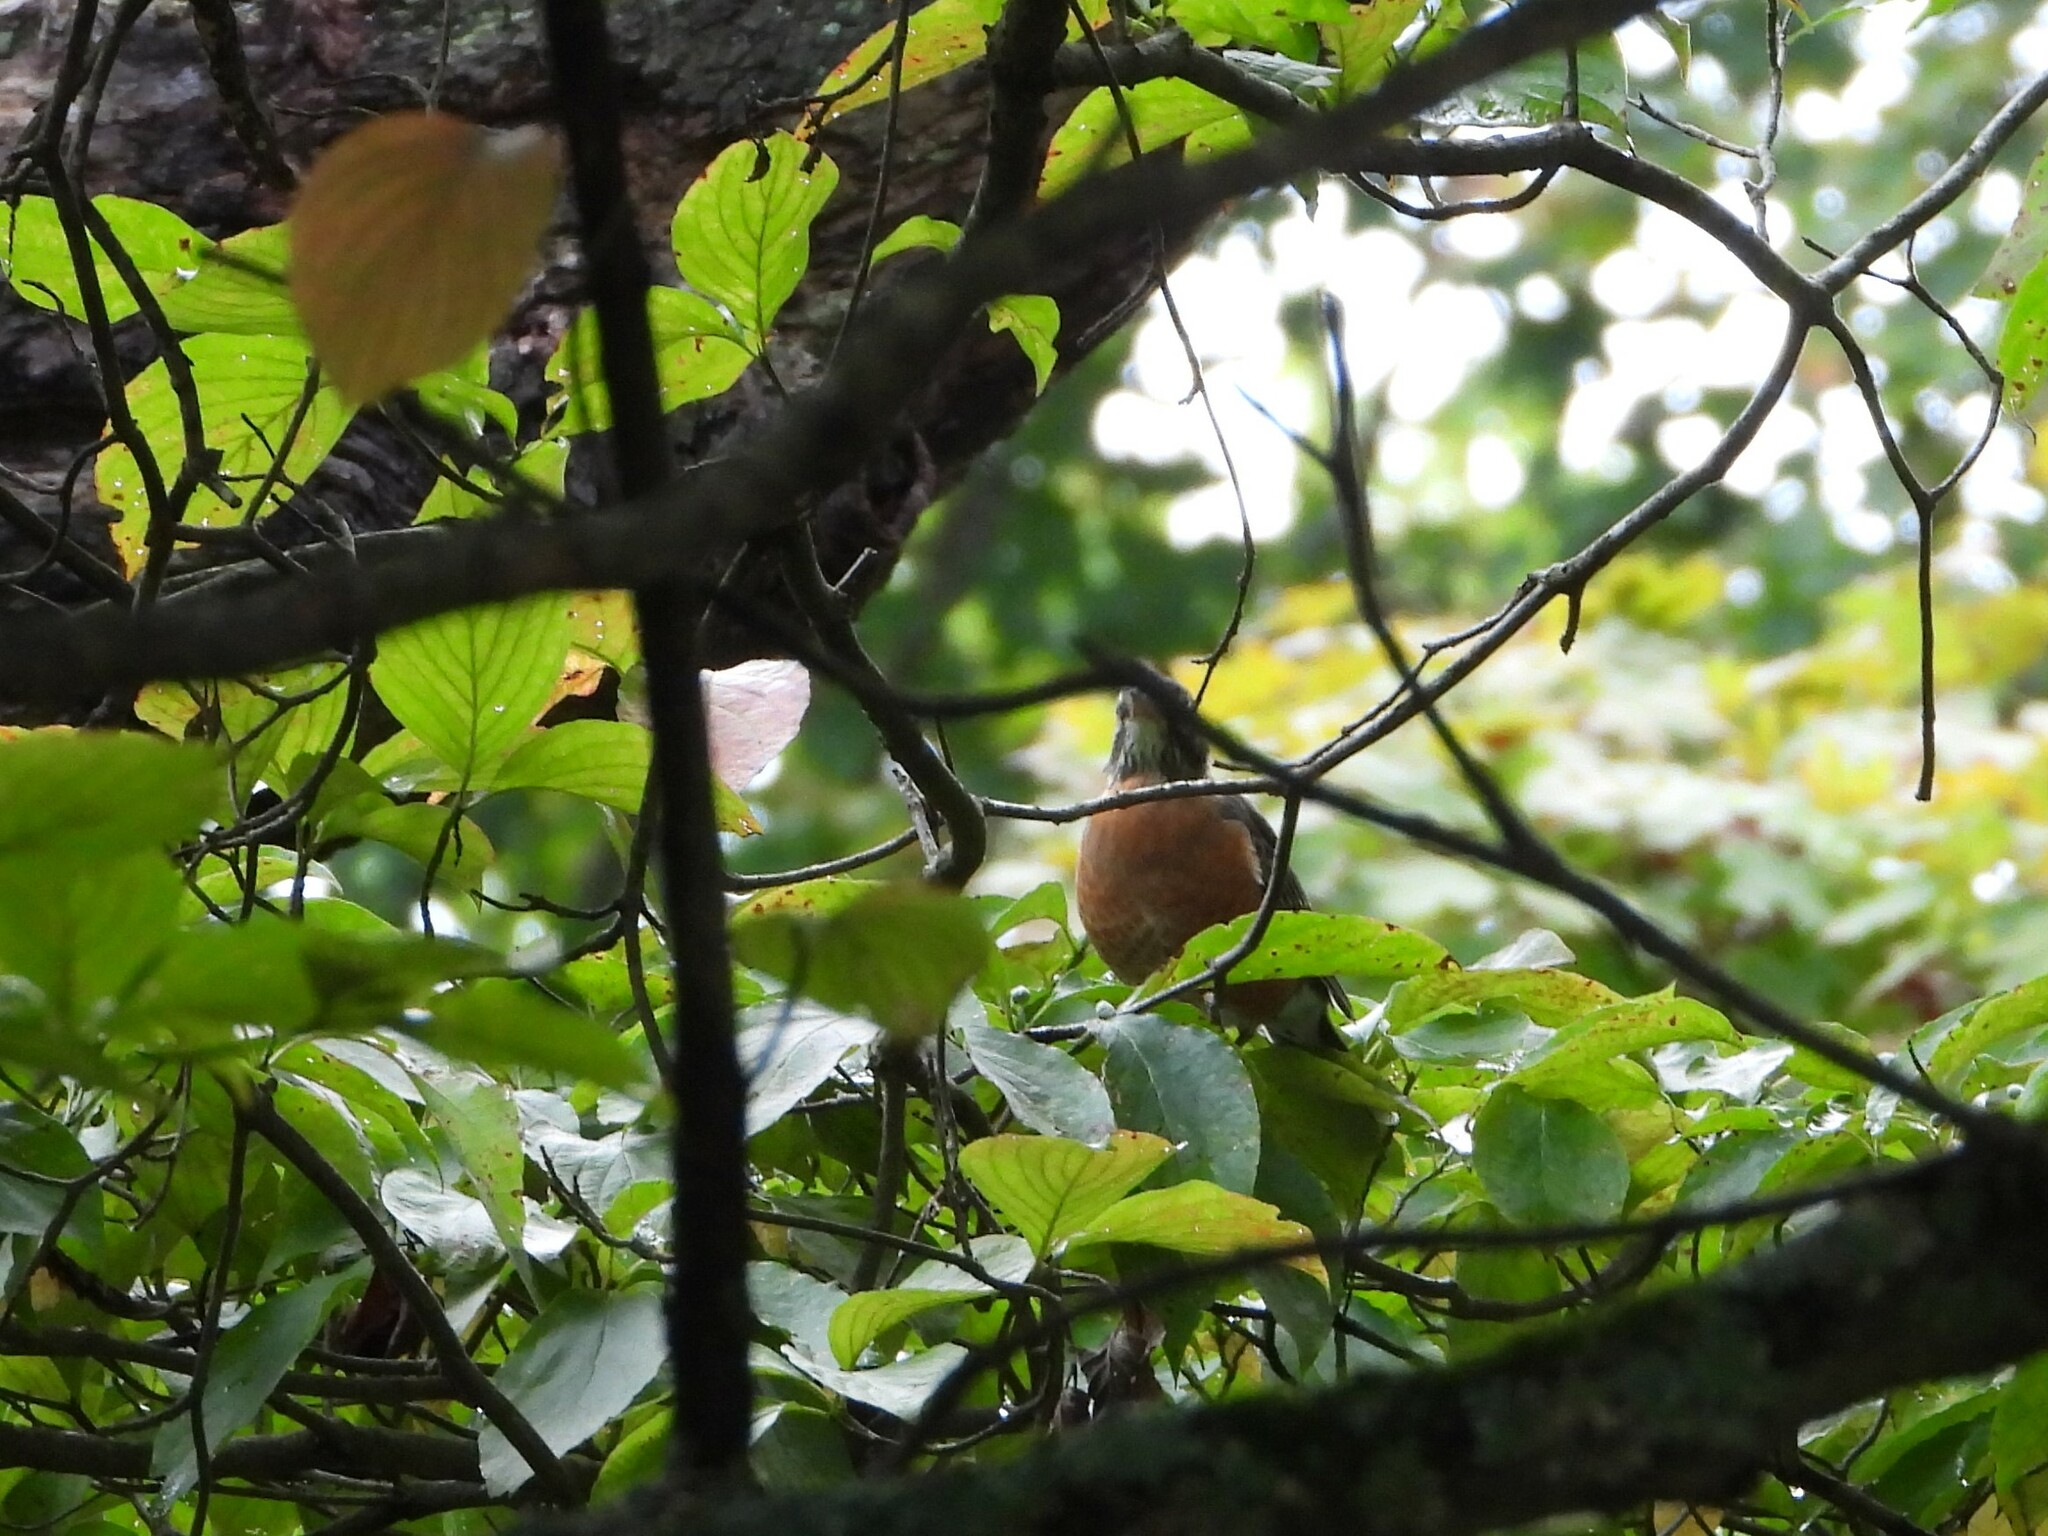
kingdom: Animalia
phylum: Chordata
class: Aves
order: Passeriformes
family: Turdidae
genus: Turdus
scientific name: Turdus migratorius
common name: American robin
